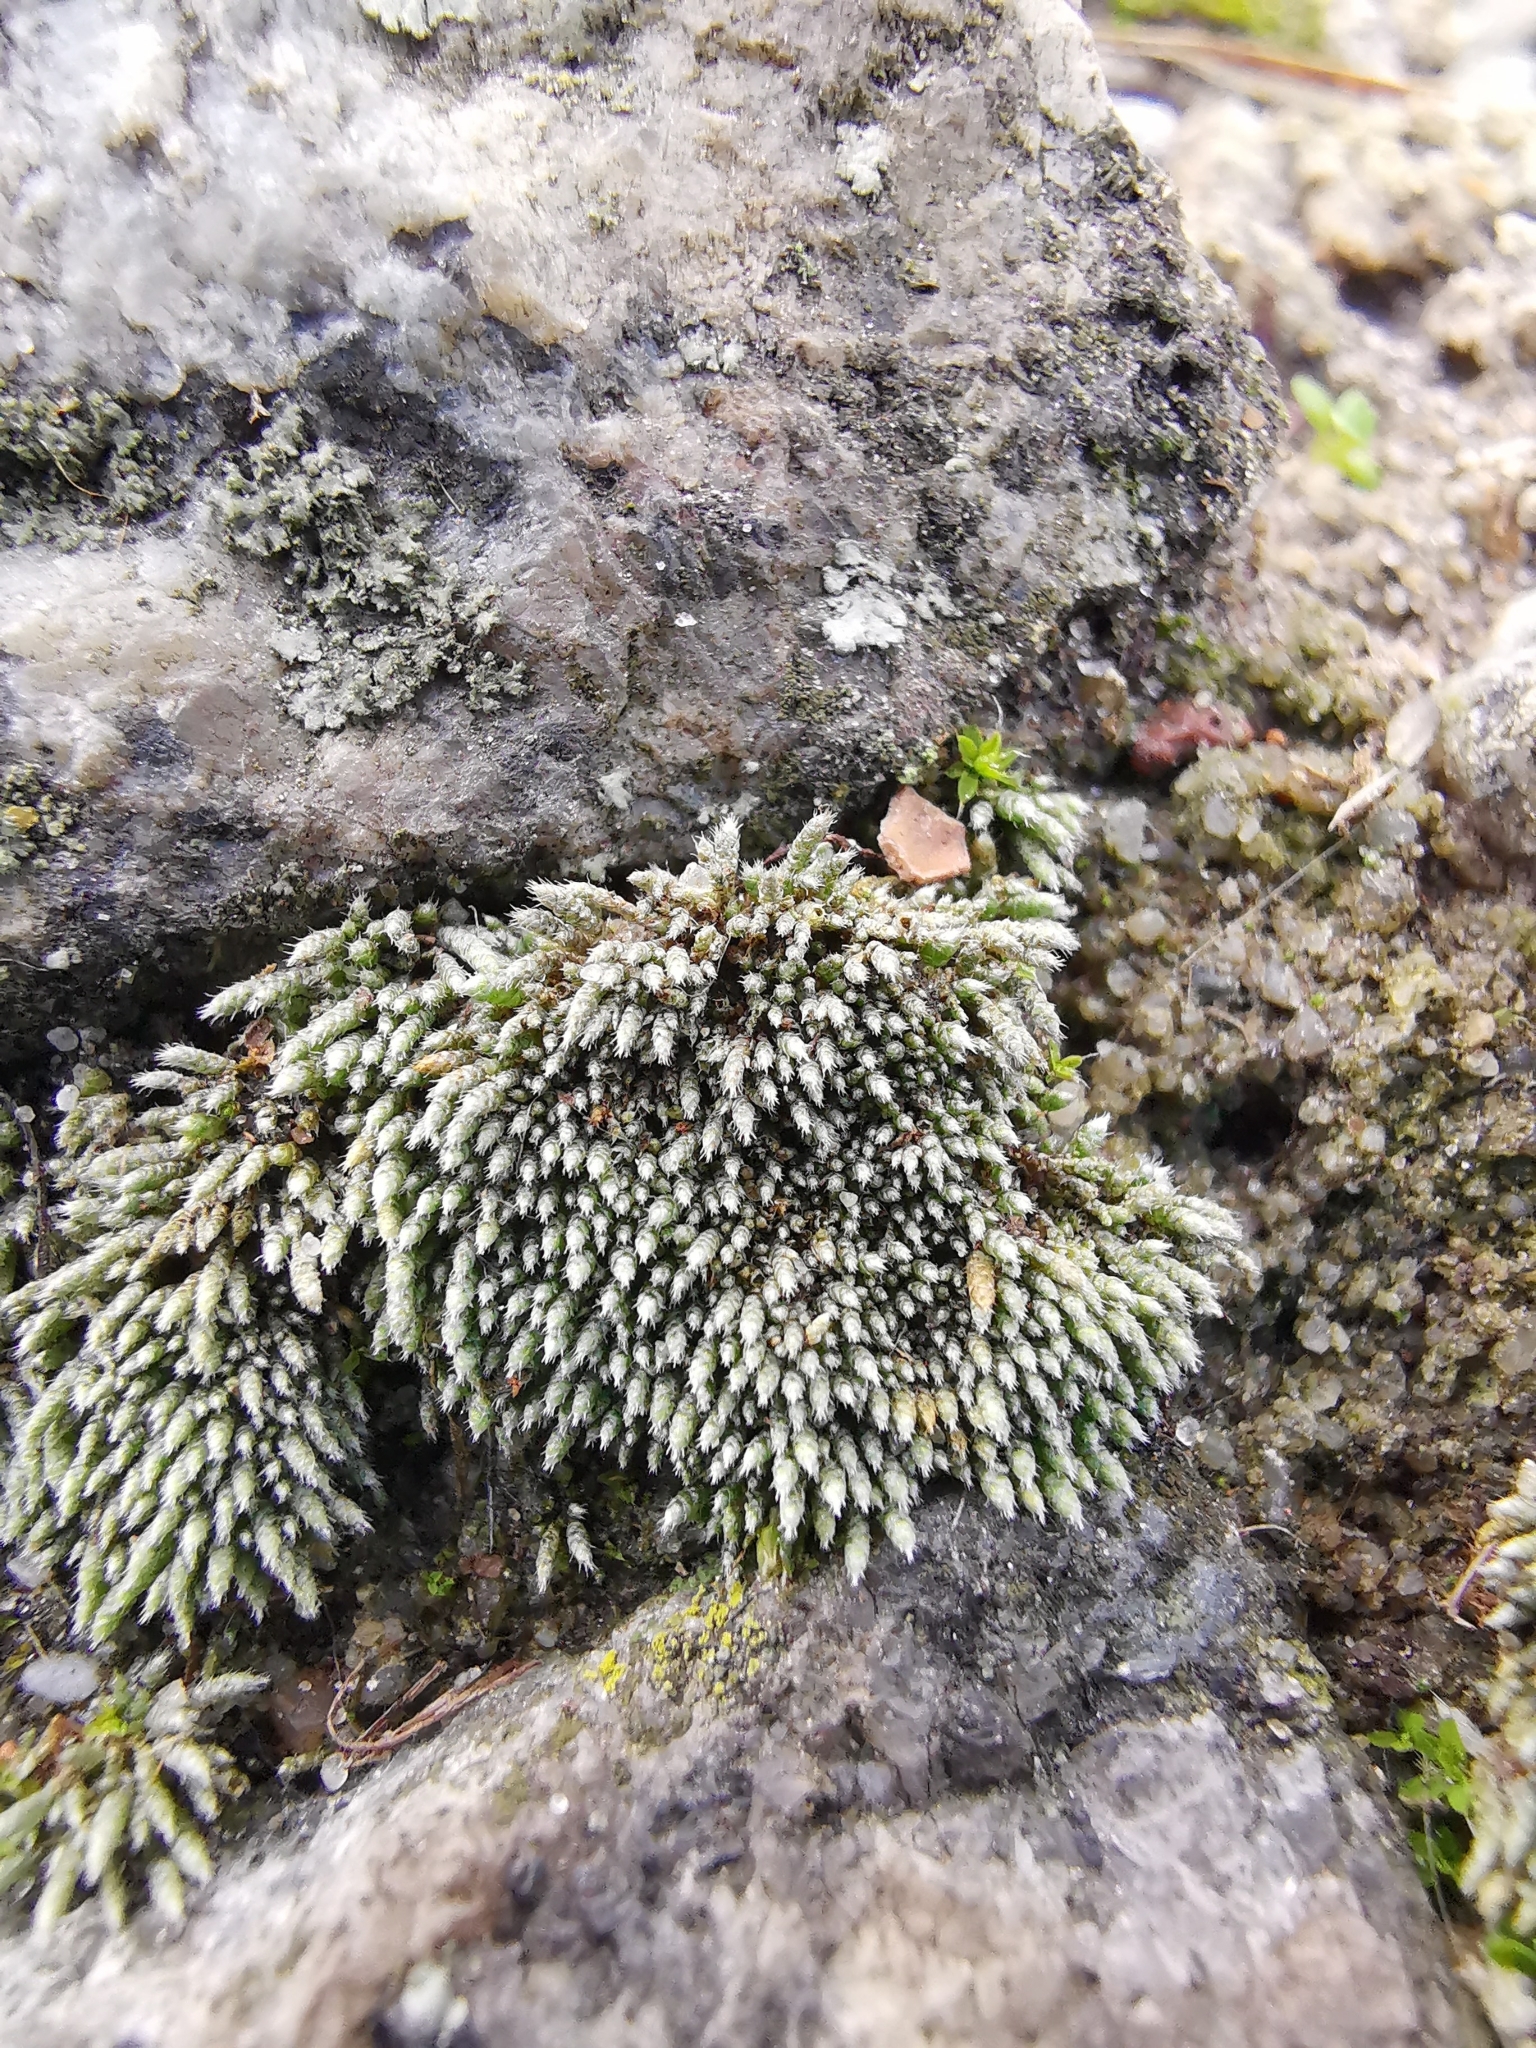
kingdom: Plantae
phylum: Bryophyta
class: Bryopsida
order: Bryales
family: Bryaceae
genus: Bryum
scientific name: Bryum argenteum
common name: Silver-moss
